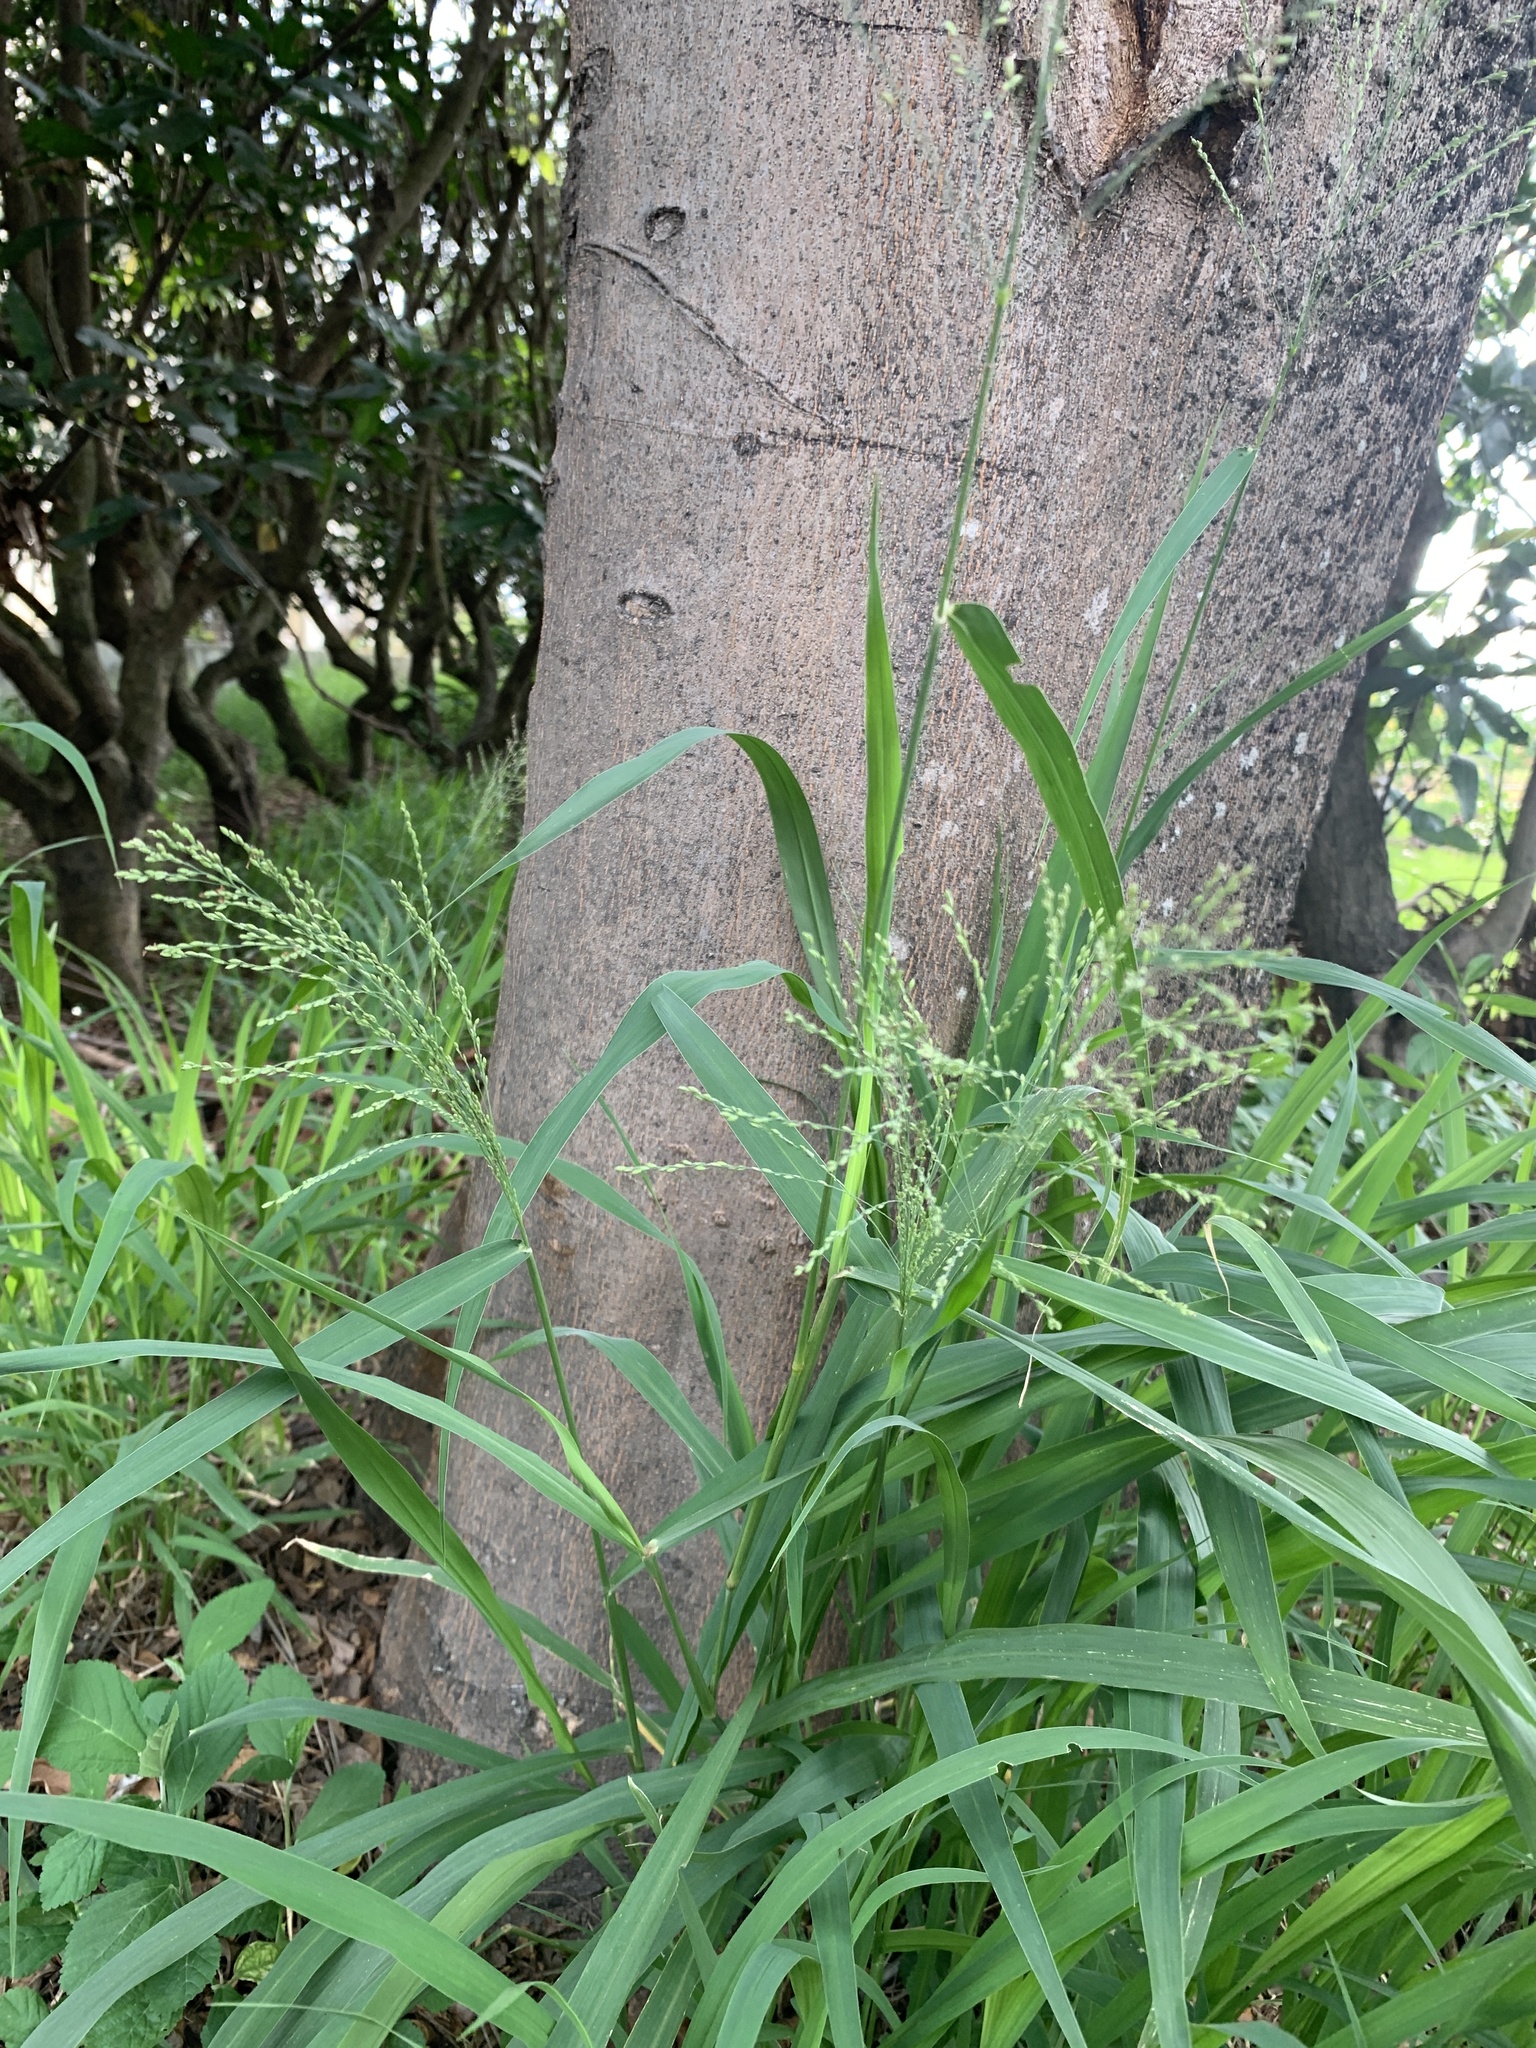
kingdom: Plantae
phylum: Tracheophyta
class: Liliopsida
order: Poales
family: Poaceae
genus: Megathyrsus
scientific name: Megathyrsus maximus
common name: Guineagrass
